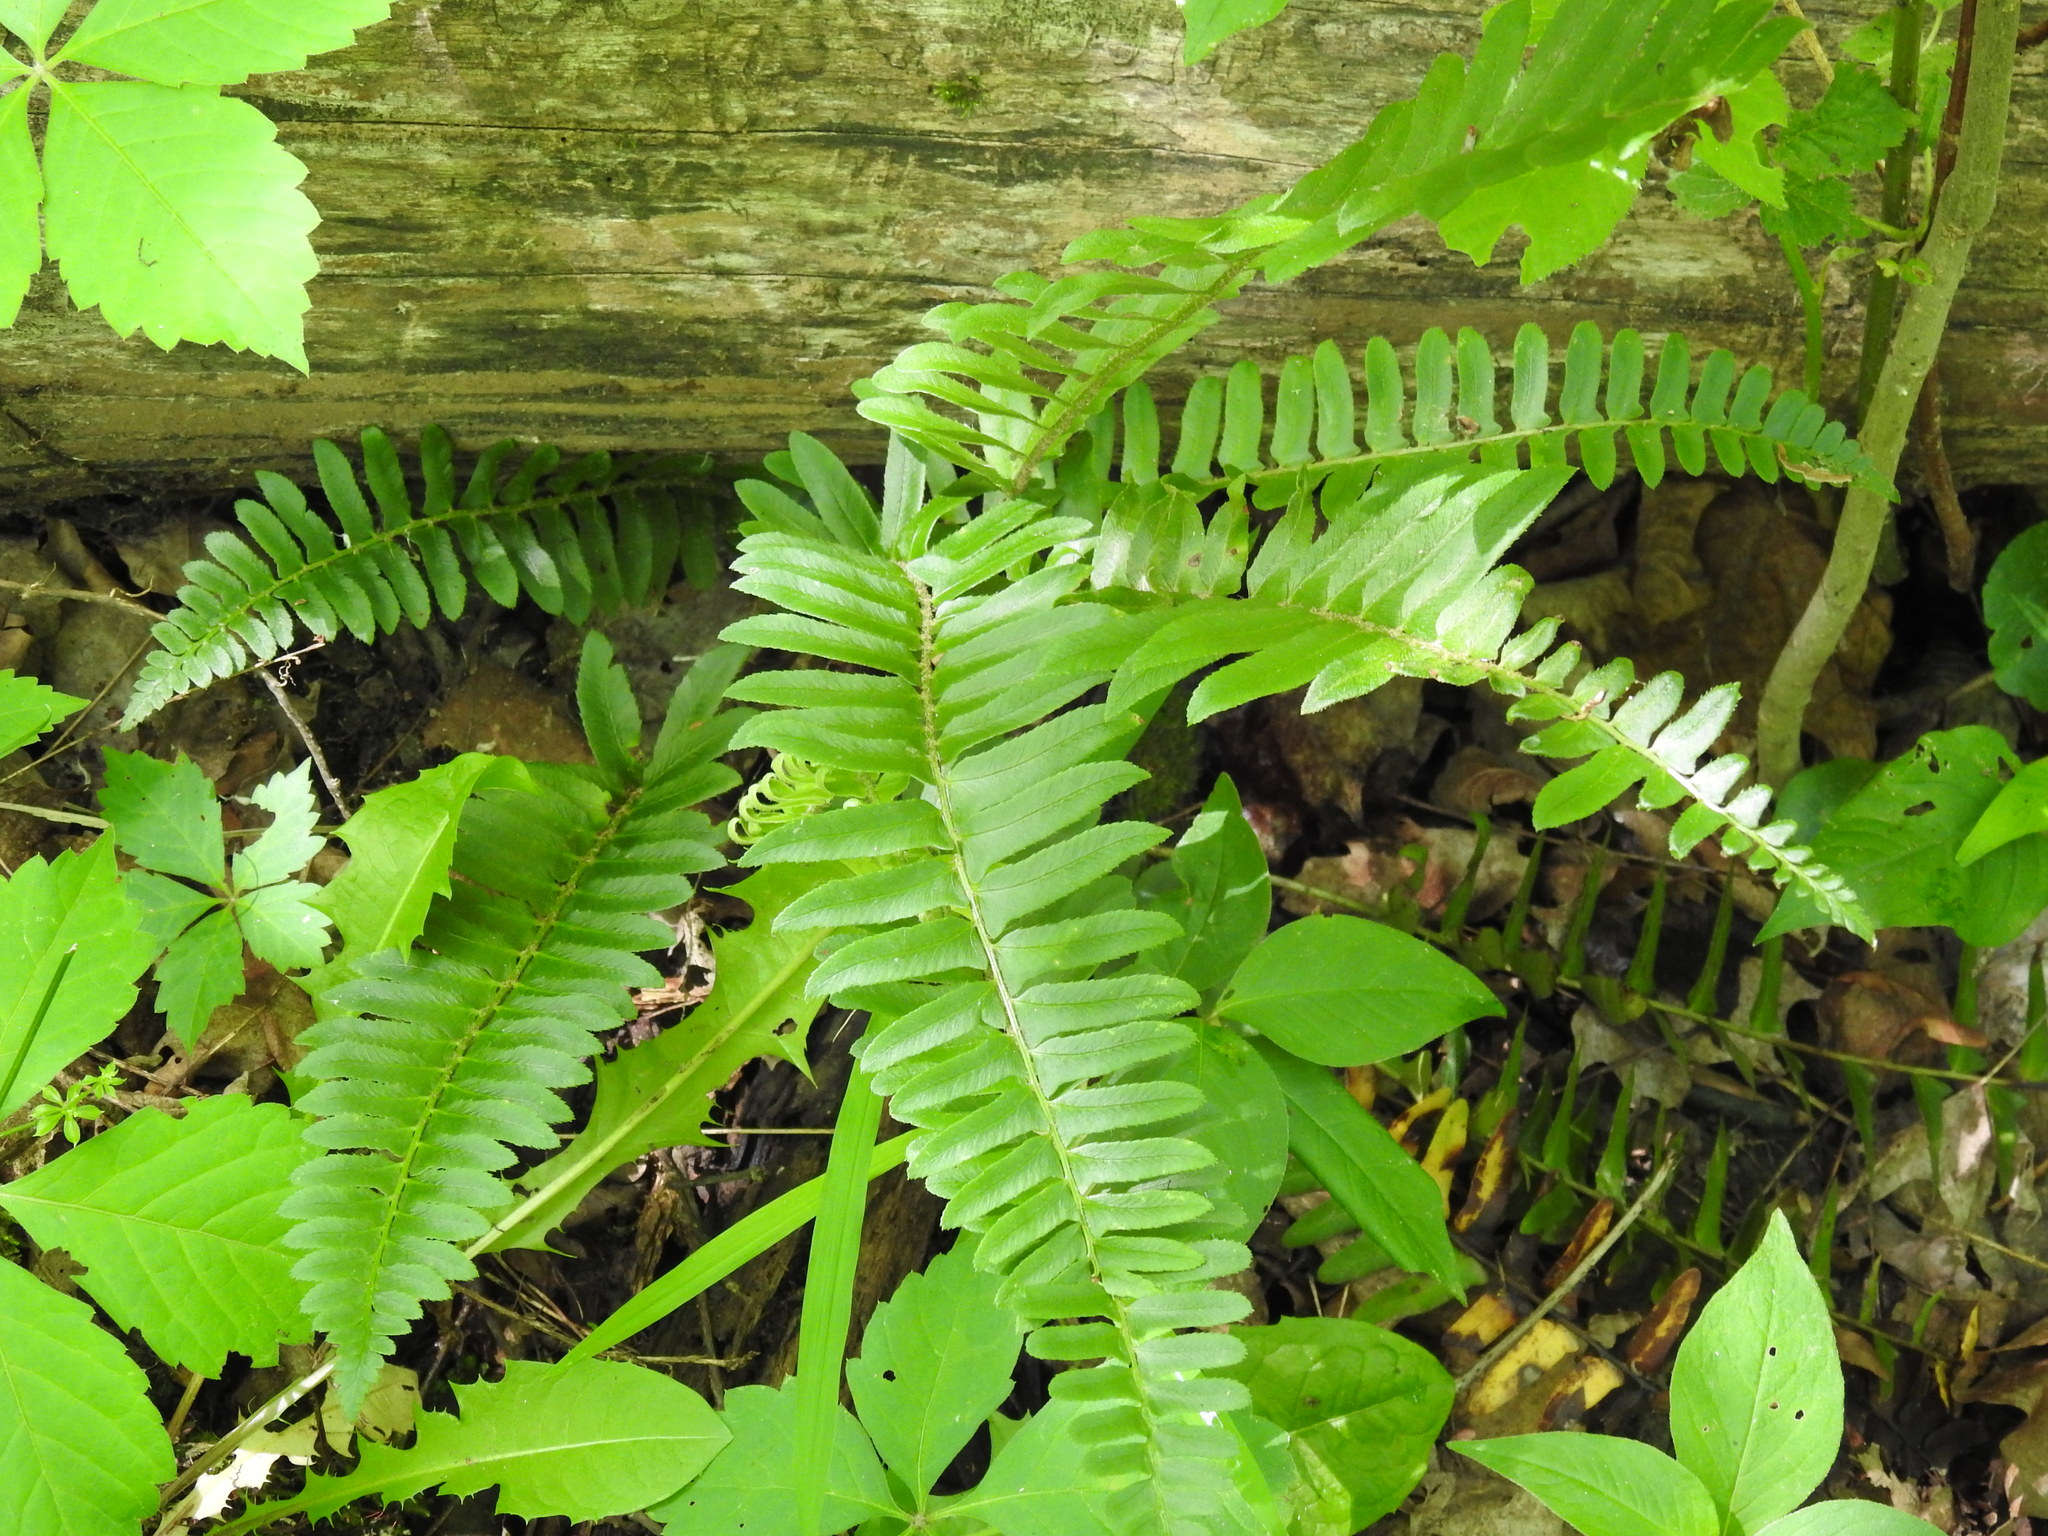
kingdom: Plantae
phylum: Tracheophyta
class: Polypodiopsida
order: Polypodiales
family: Dryopteridaceae
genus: Polystichum
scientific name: Polystichum acrostichoides
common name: Christmas fern
